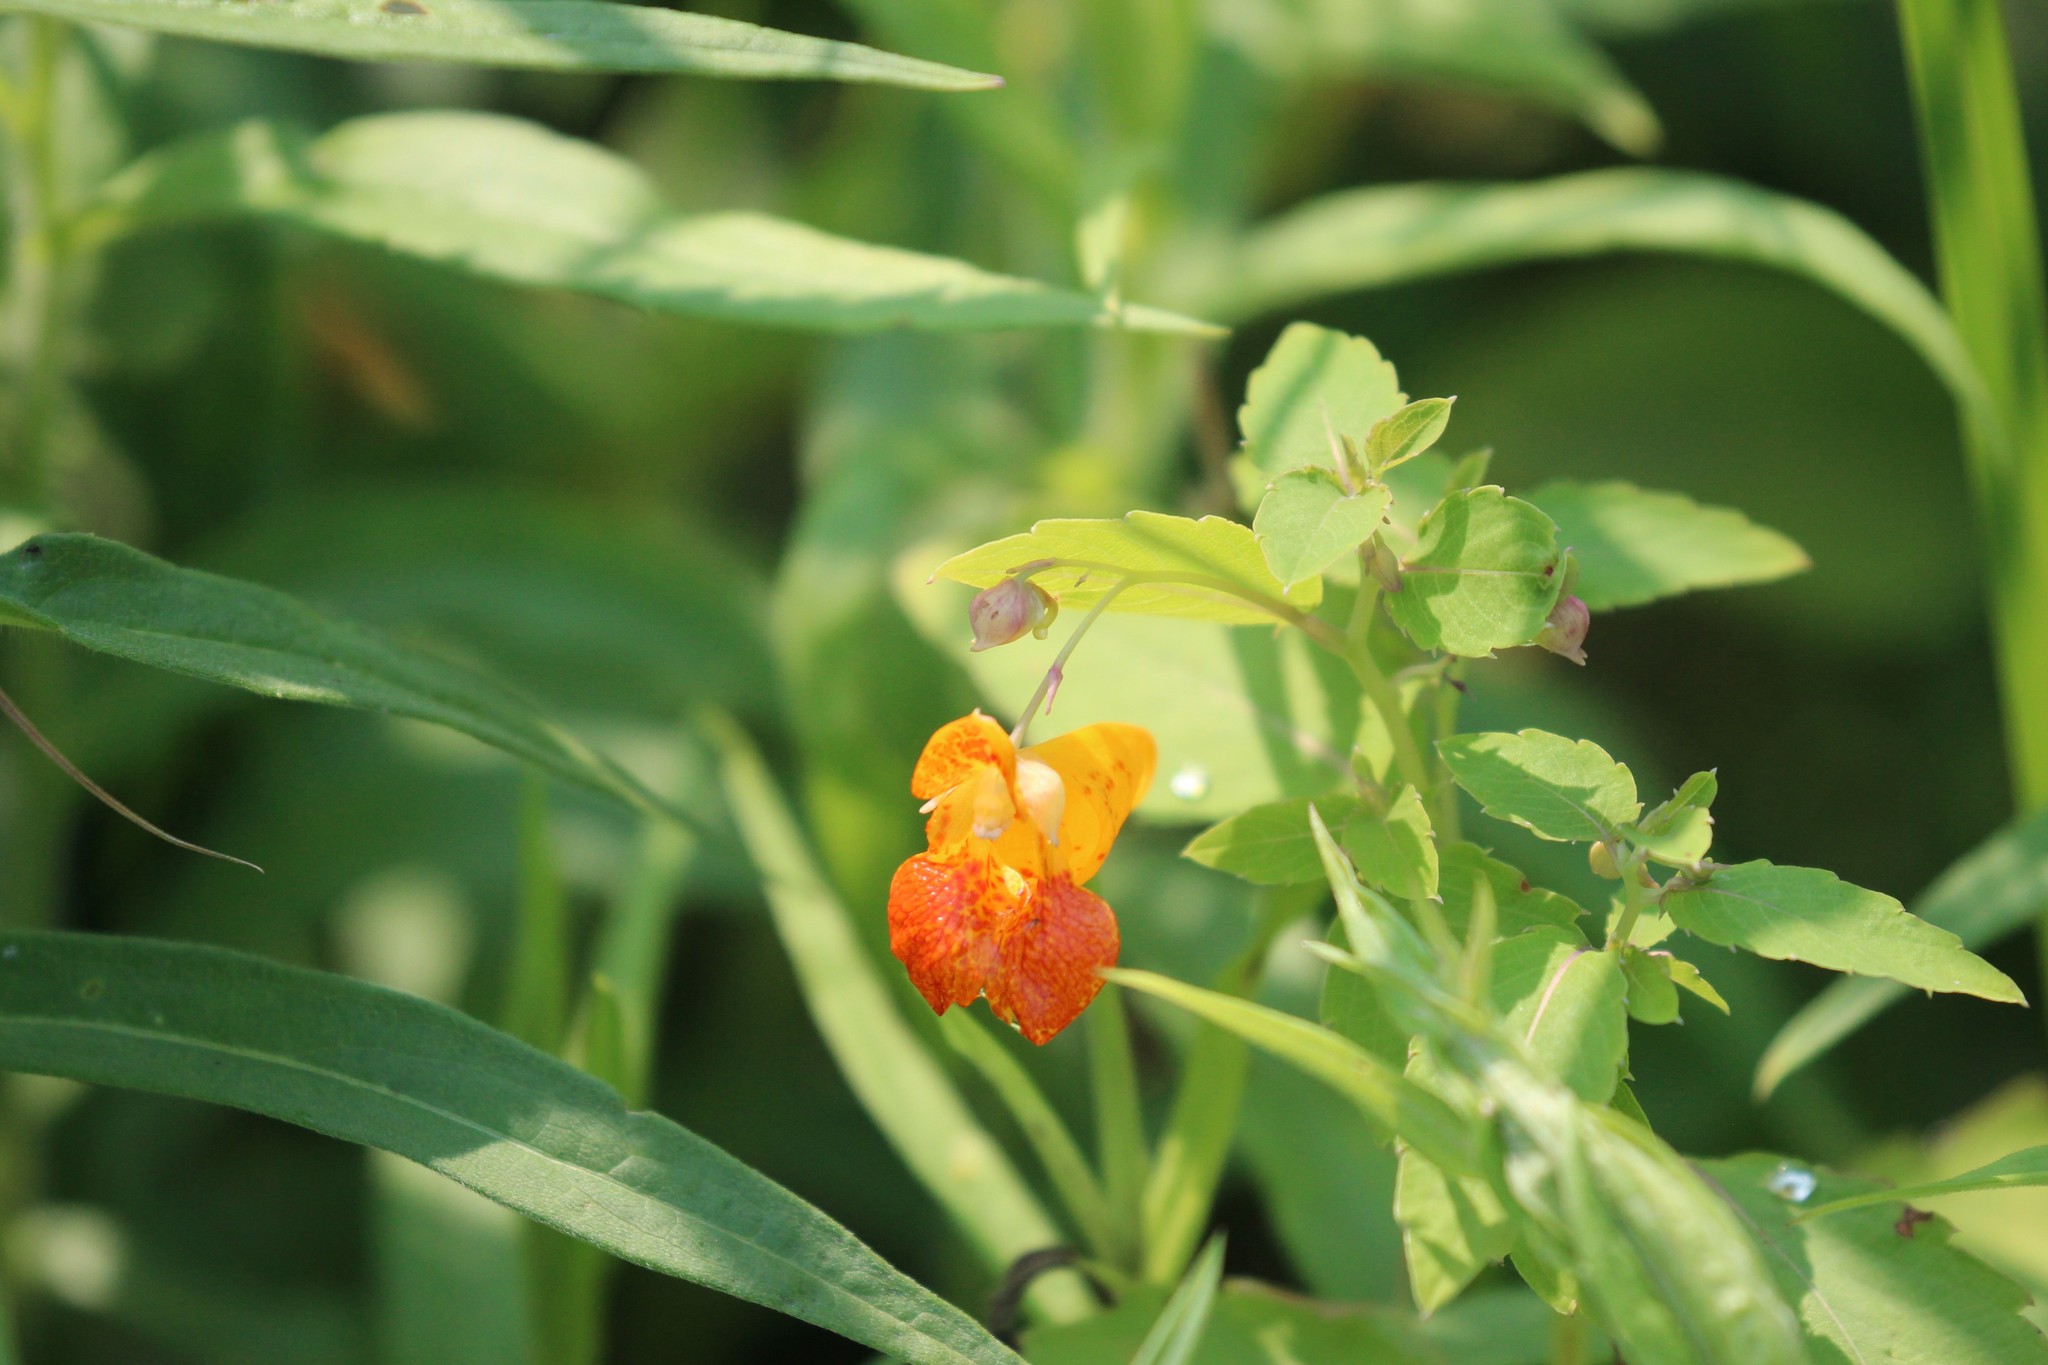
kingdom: Plantae
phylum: Tracheophyta
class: Magnoliopsida
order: Ericales
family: Balsaminaceae
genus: Impatiens
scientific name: Impatiens capensis
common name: Orange balsam
